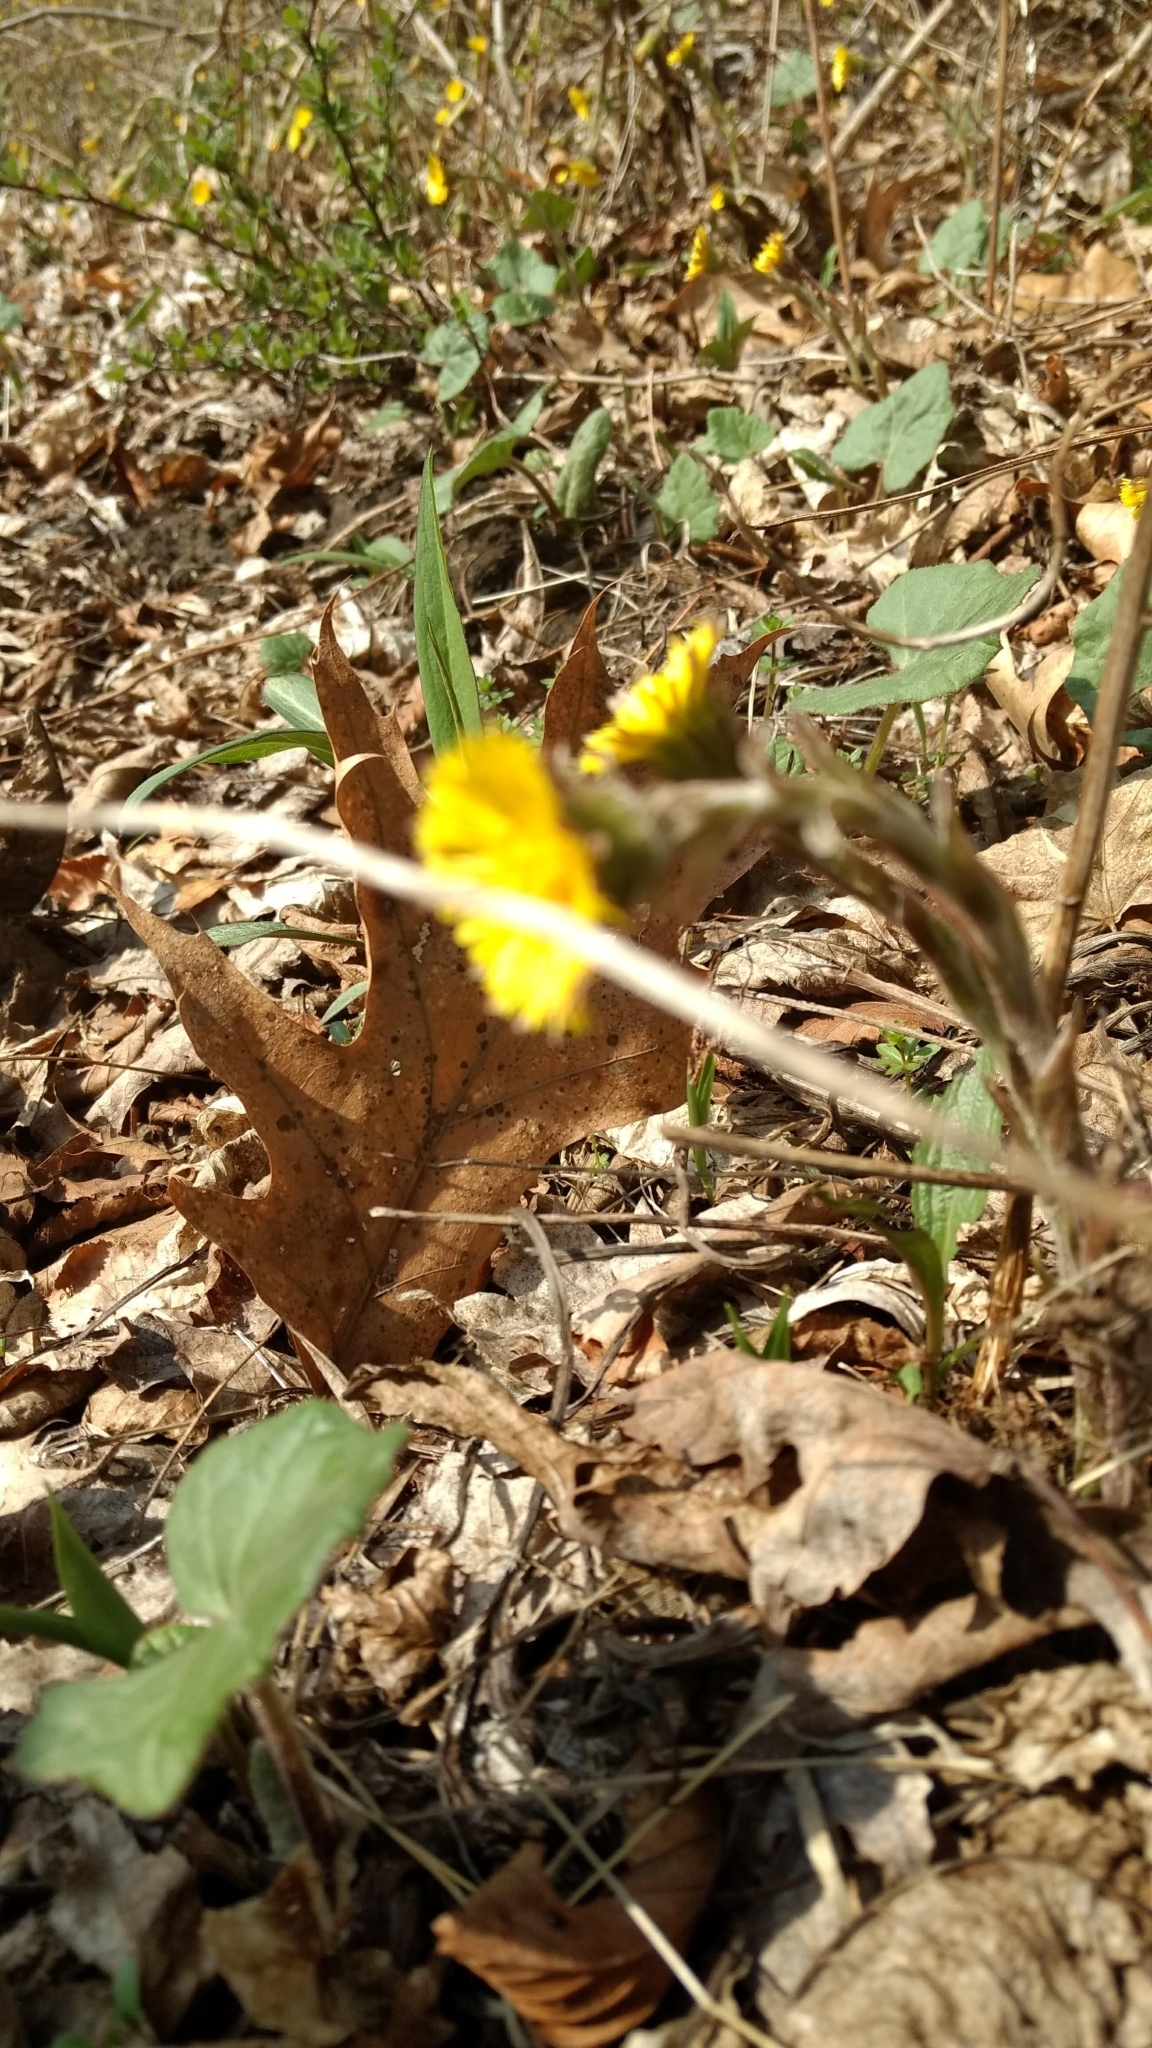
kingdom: Plantae
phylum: Tracheophyta
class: Magnoliopsida
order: Asterales
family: Asteraceae
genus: Tussilago
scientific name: Tussilago farfara
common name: Coltsfoot
